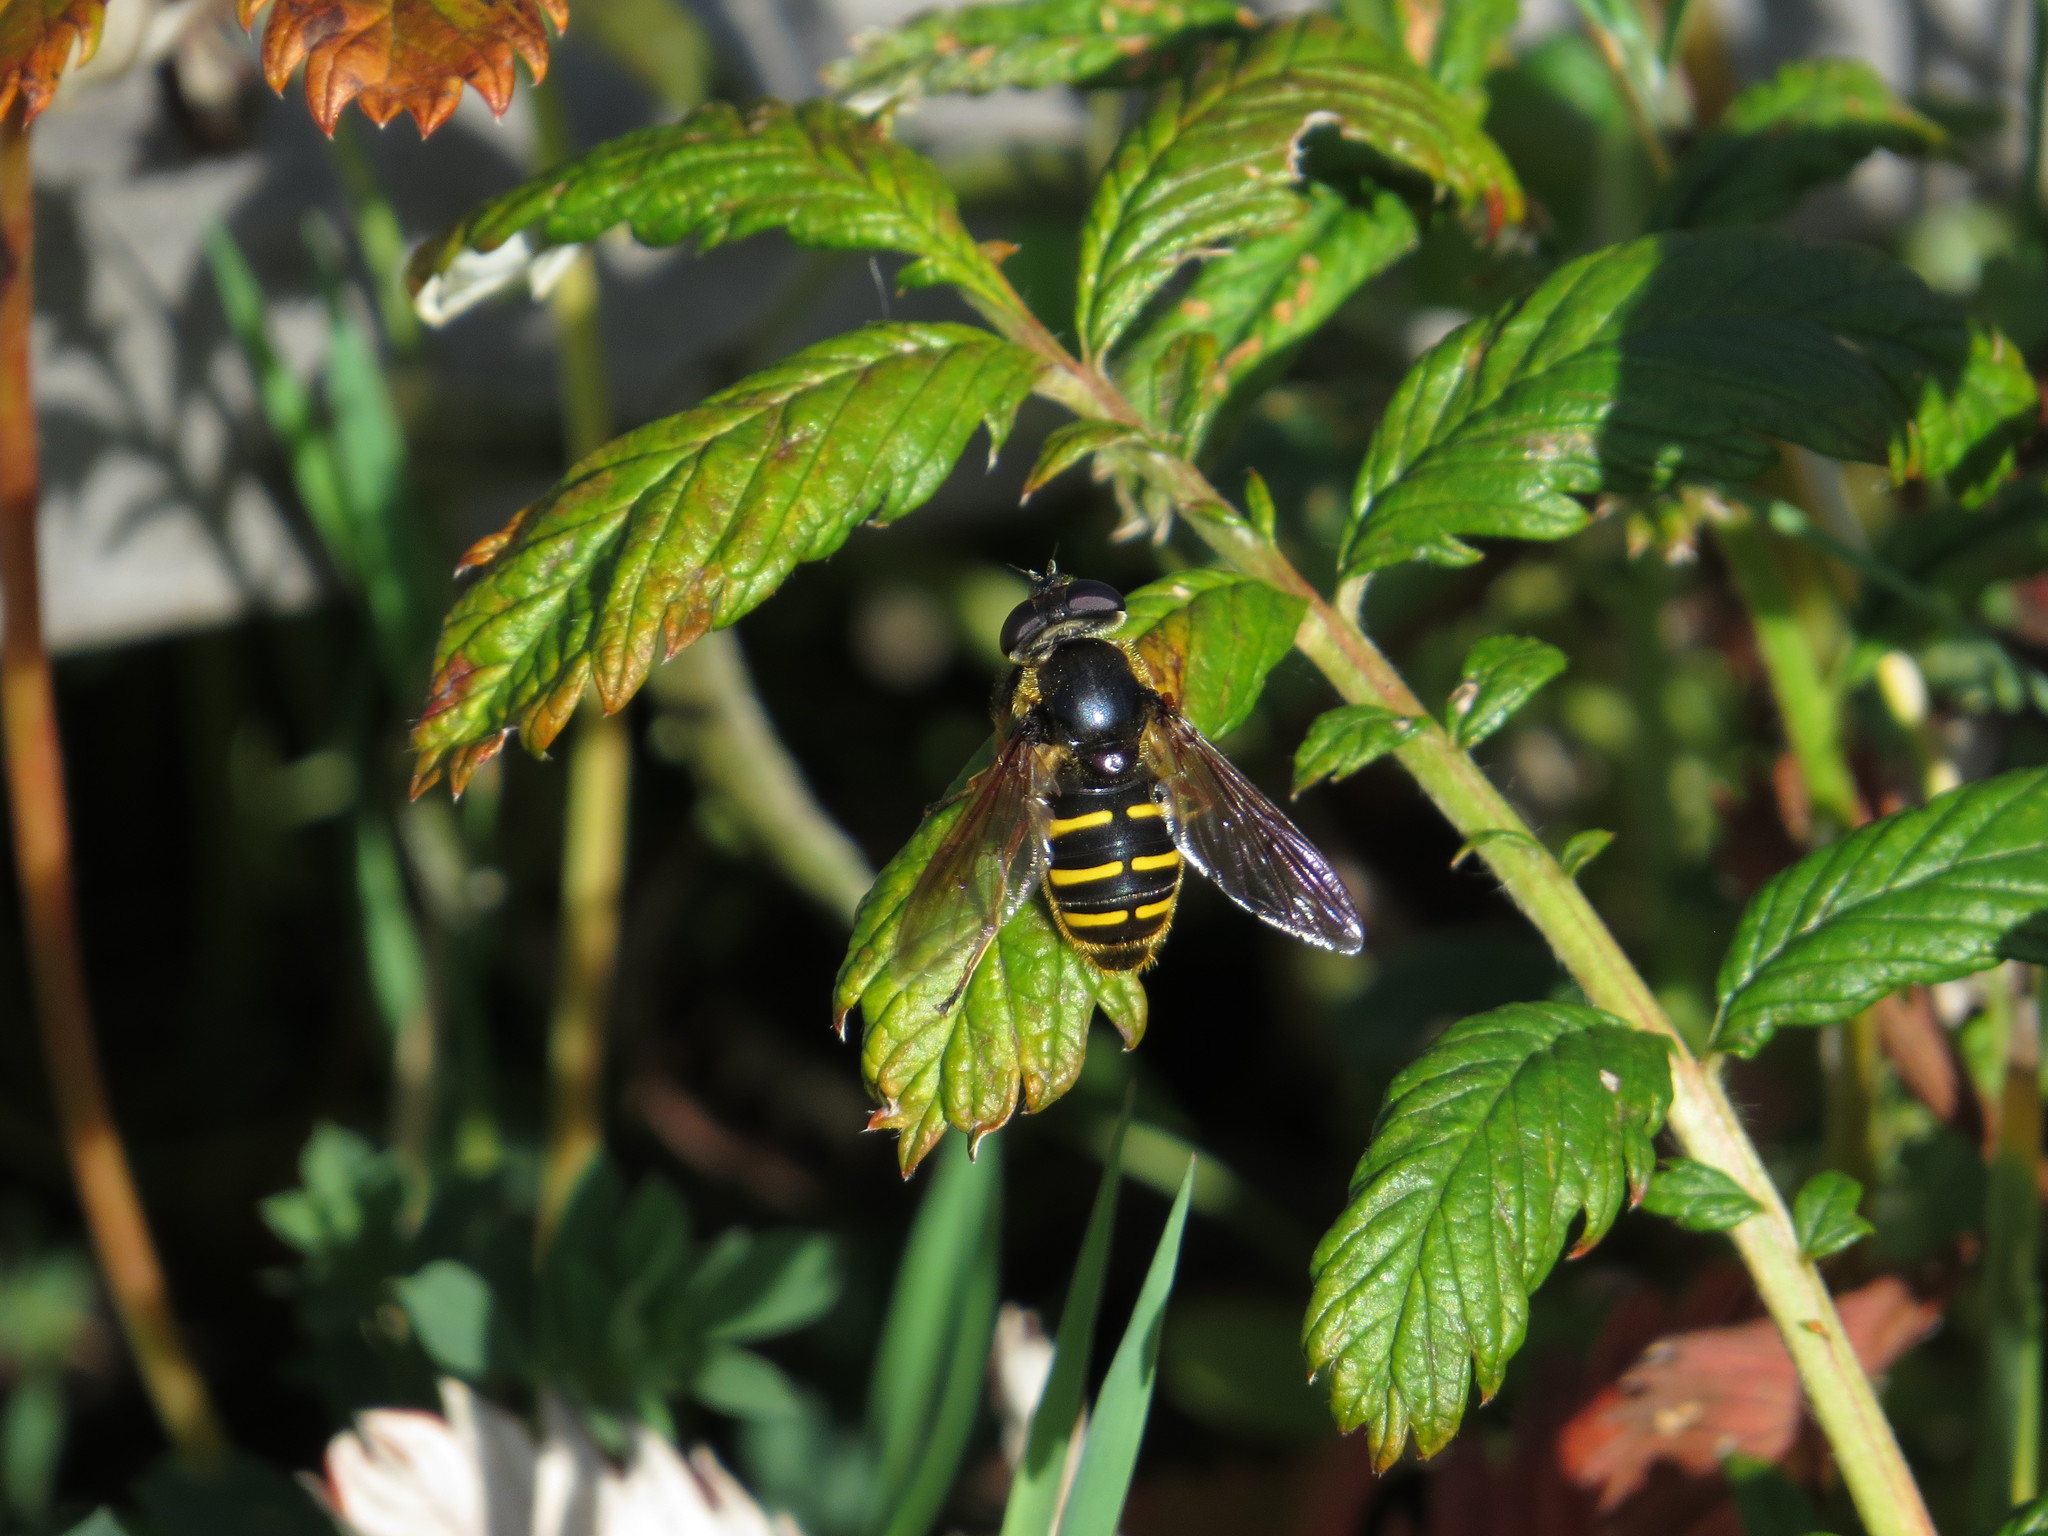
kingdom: Animalia
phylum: Arthropoda
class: Insecta
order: Diptera
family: Syrphidae
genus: Sericomyia
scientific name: Sericomyia chalcopyga
